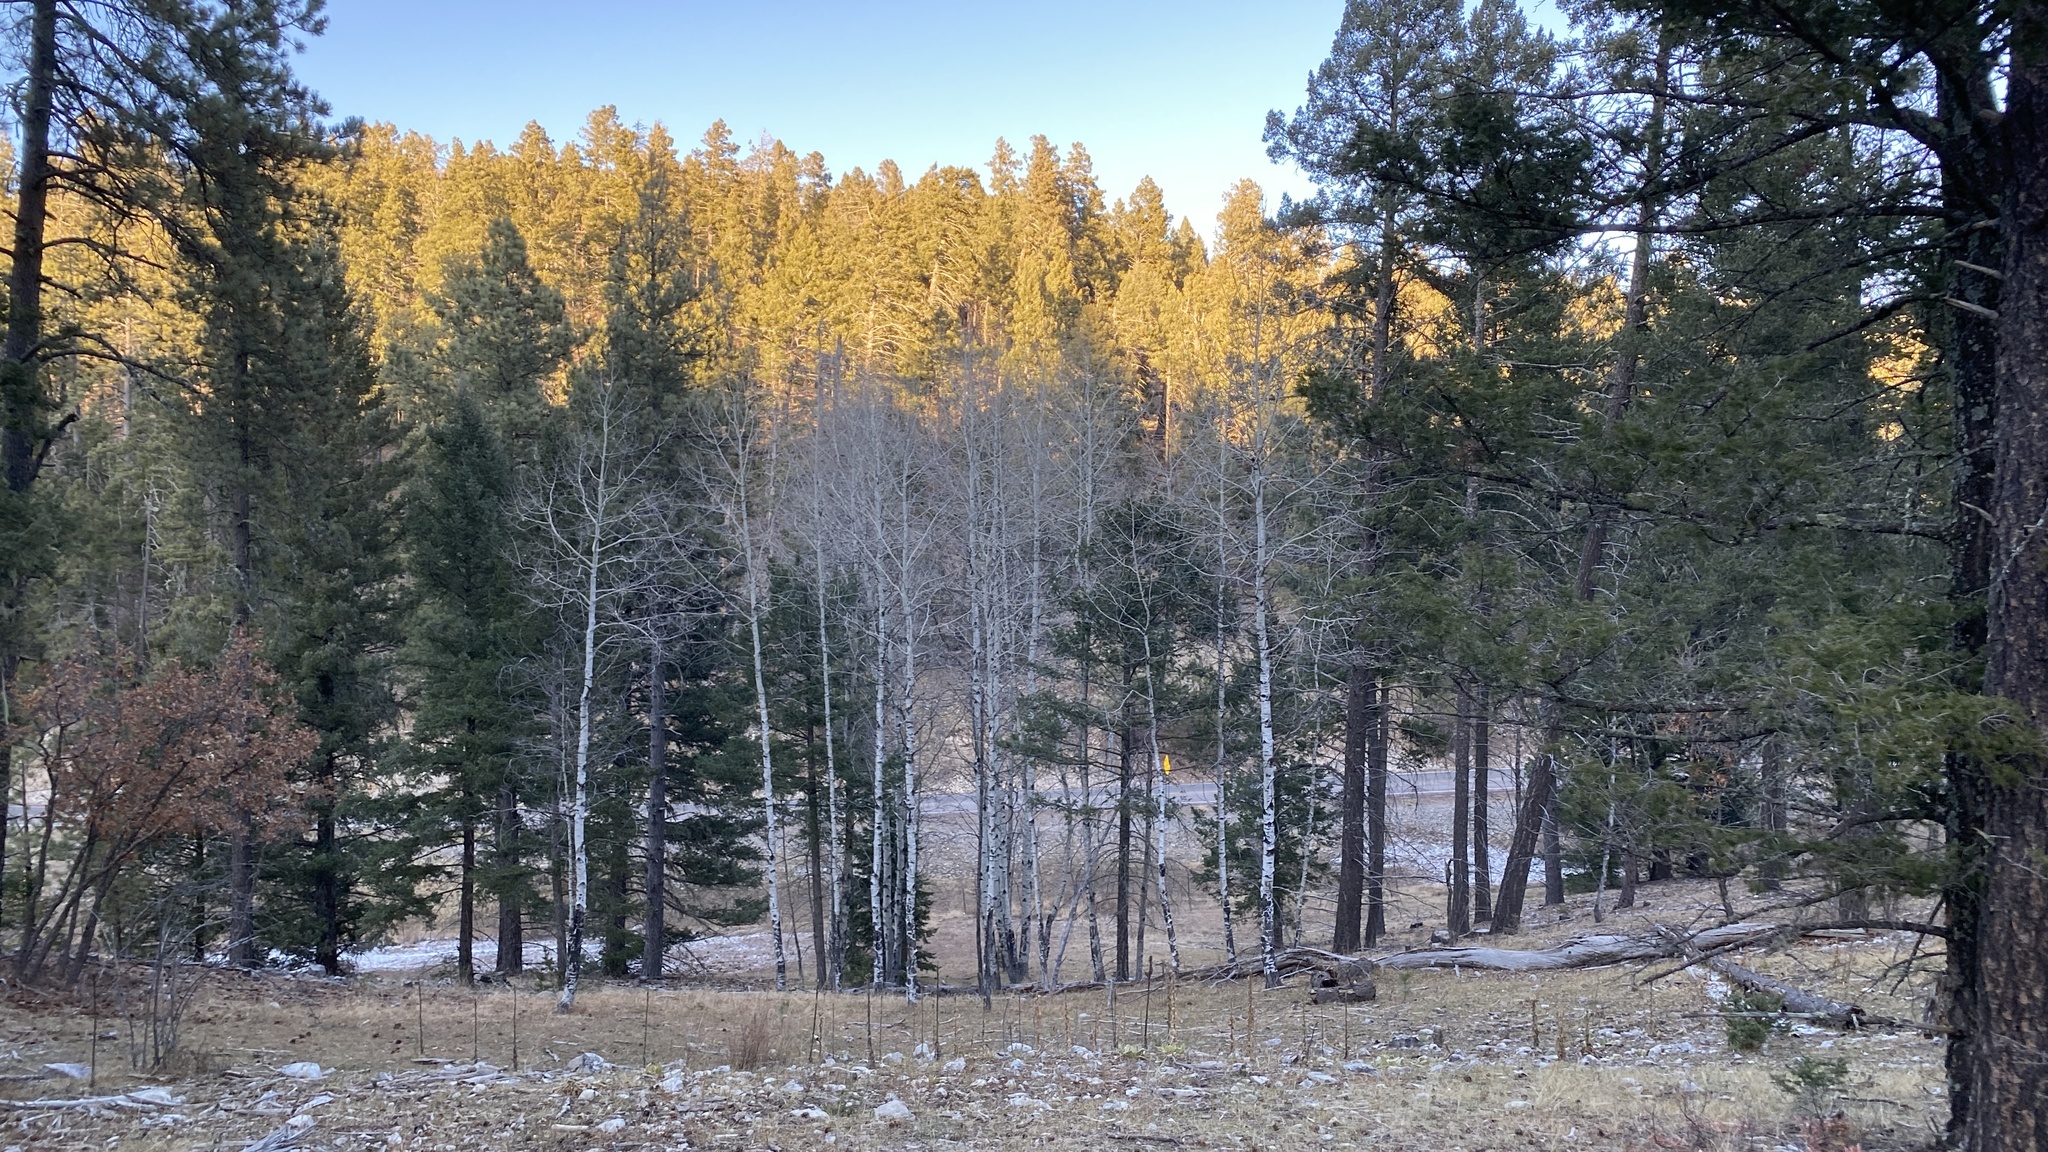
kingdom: Plantae
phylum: Tracheophyta
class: Magnoliopsida
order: Malpighiales
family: Salicaceae
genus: Populus
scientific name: Populus tremuloides
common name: Quaking aspen
